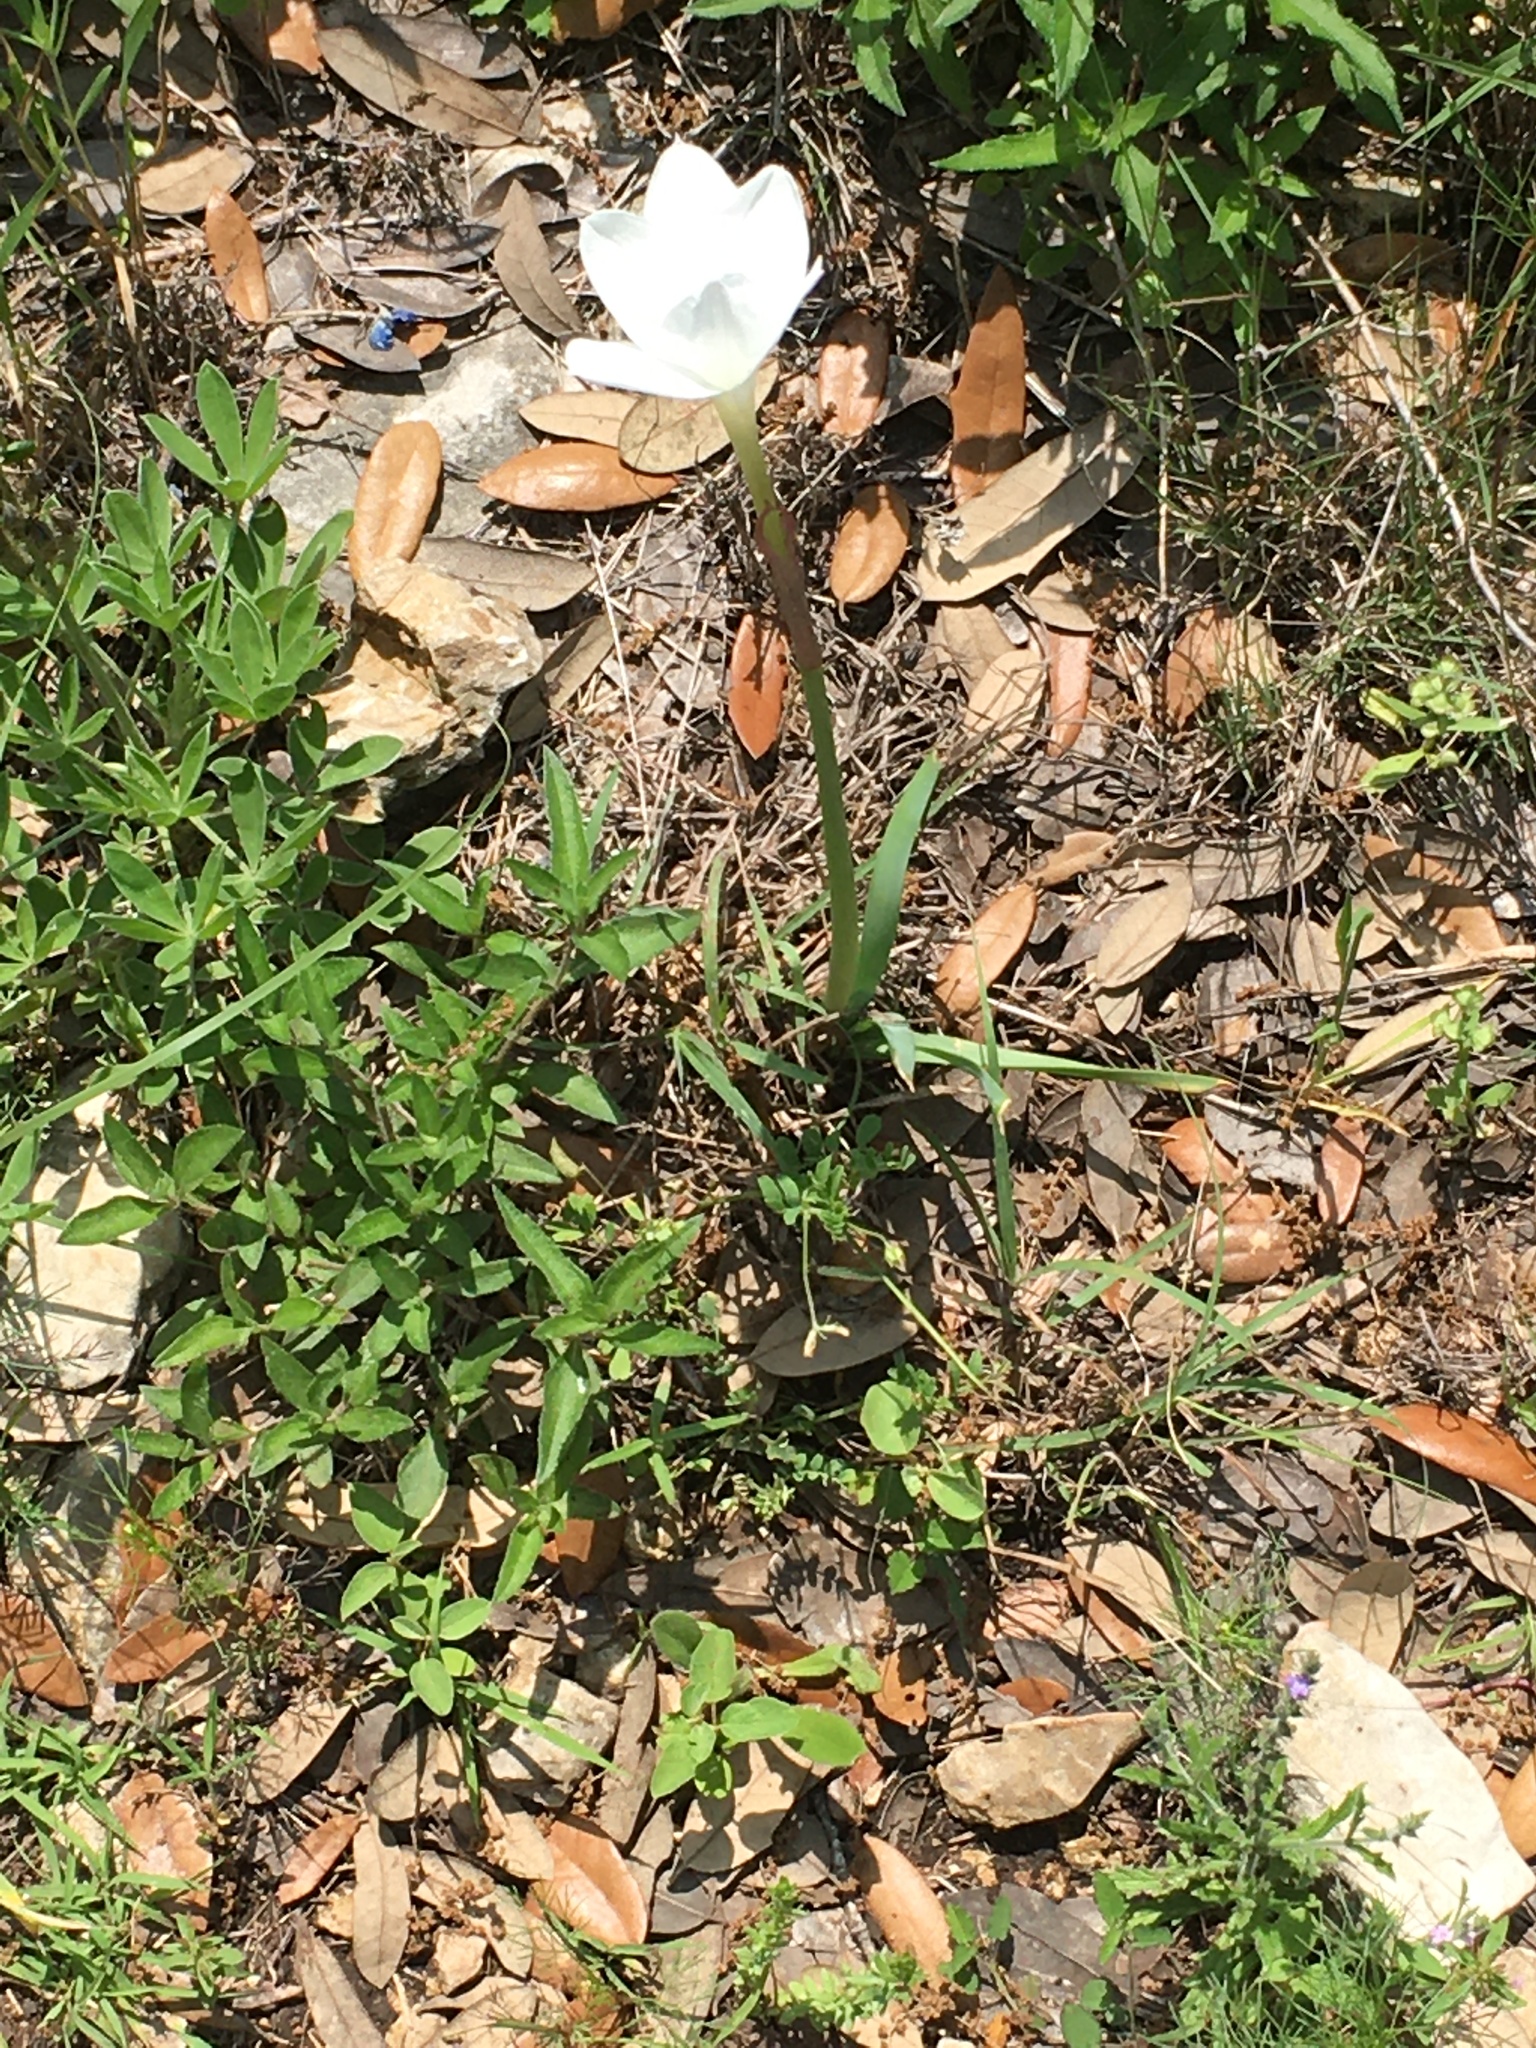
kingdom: Plantae
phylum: Tracheophyta
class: Liliopsida
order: Asparagales
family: Amaryllidaceae
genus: Zephyranthes
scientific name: Zephyranthes drummondii
